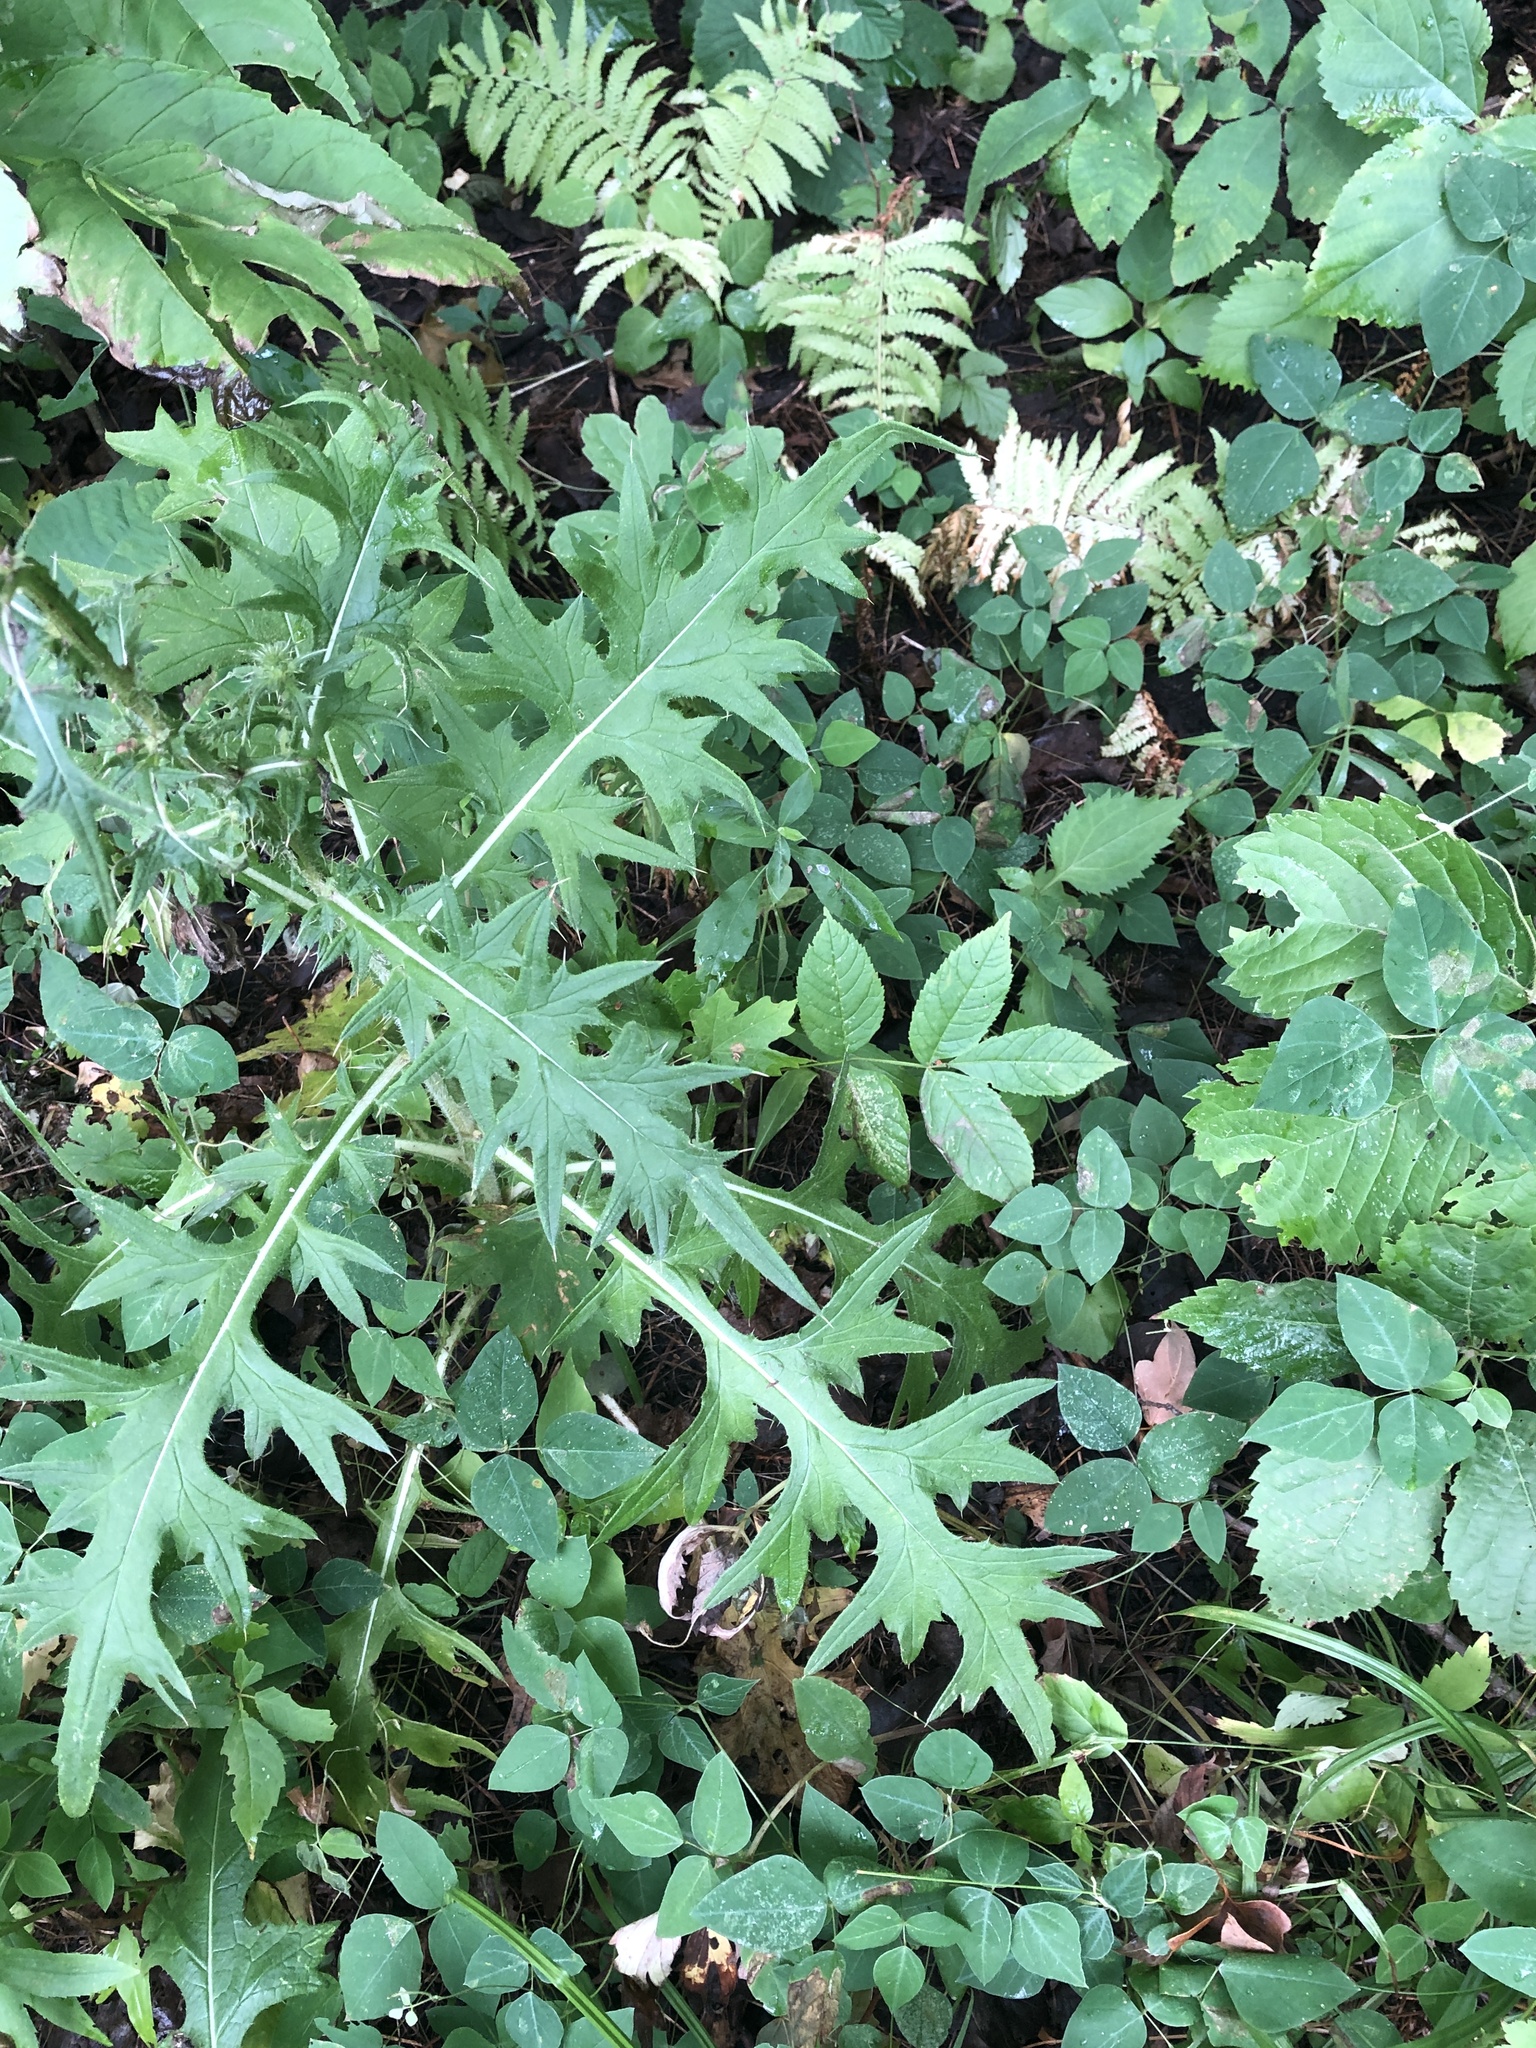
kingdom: Plantae
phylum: Tracheophyta
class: Magnoliopsida
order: Asterales
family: Asteraceae
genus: Cirsium
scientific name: Cirsium vulgare
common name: Bull thistle
